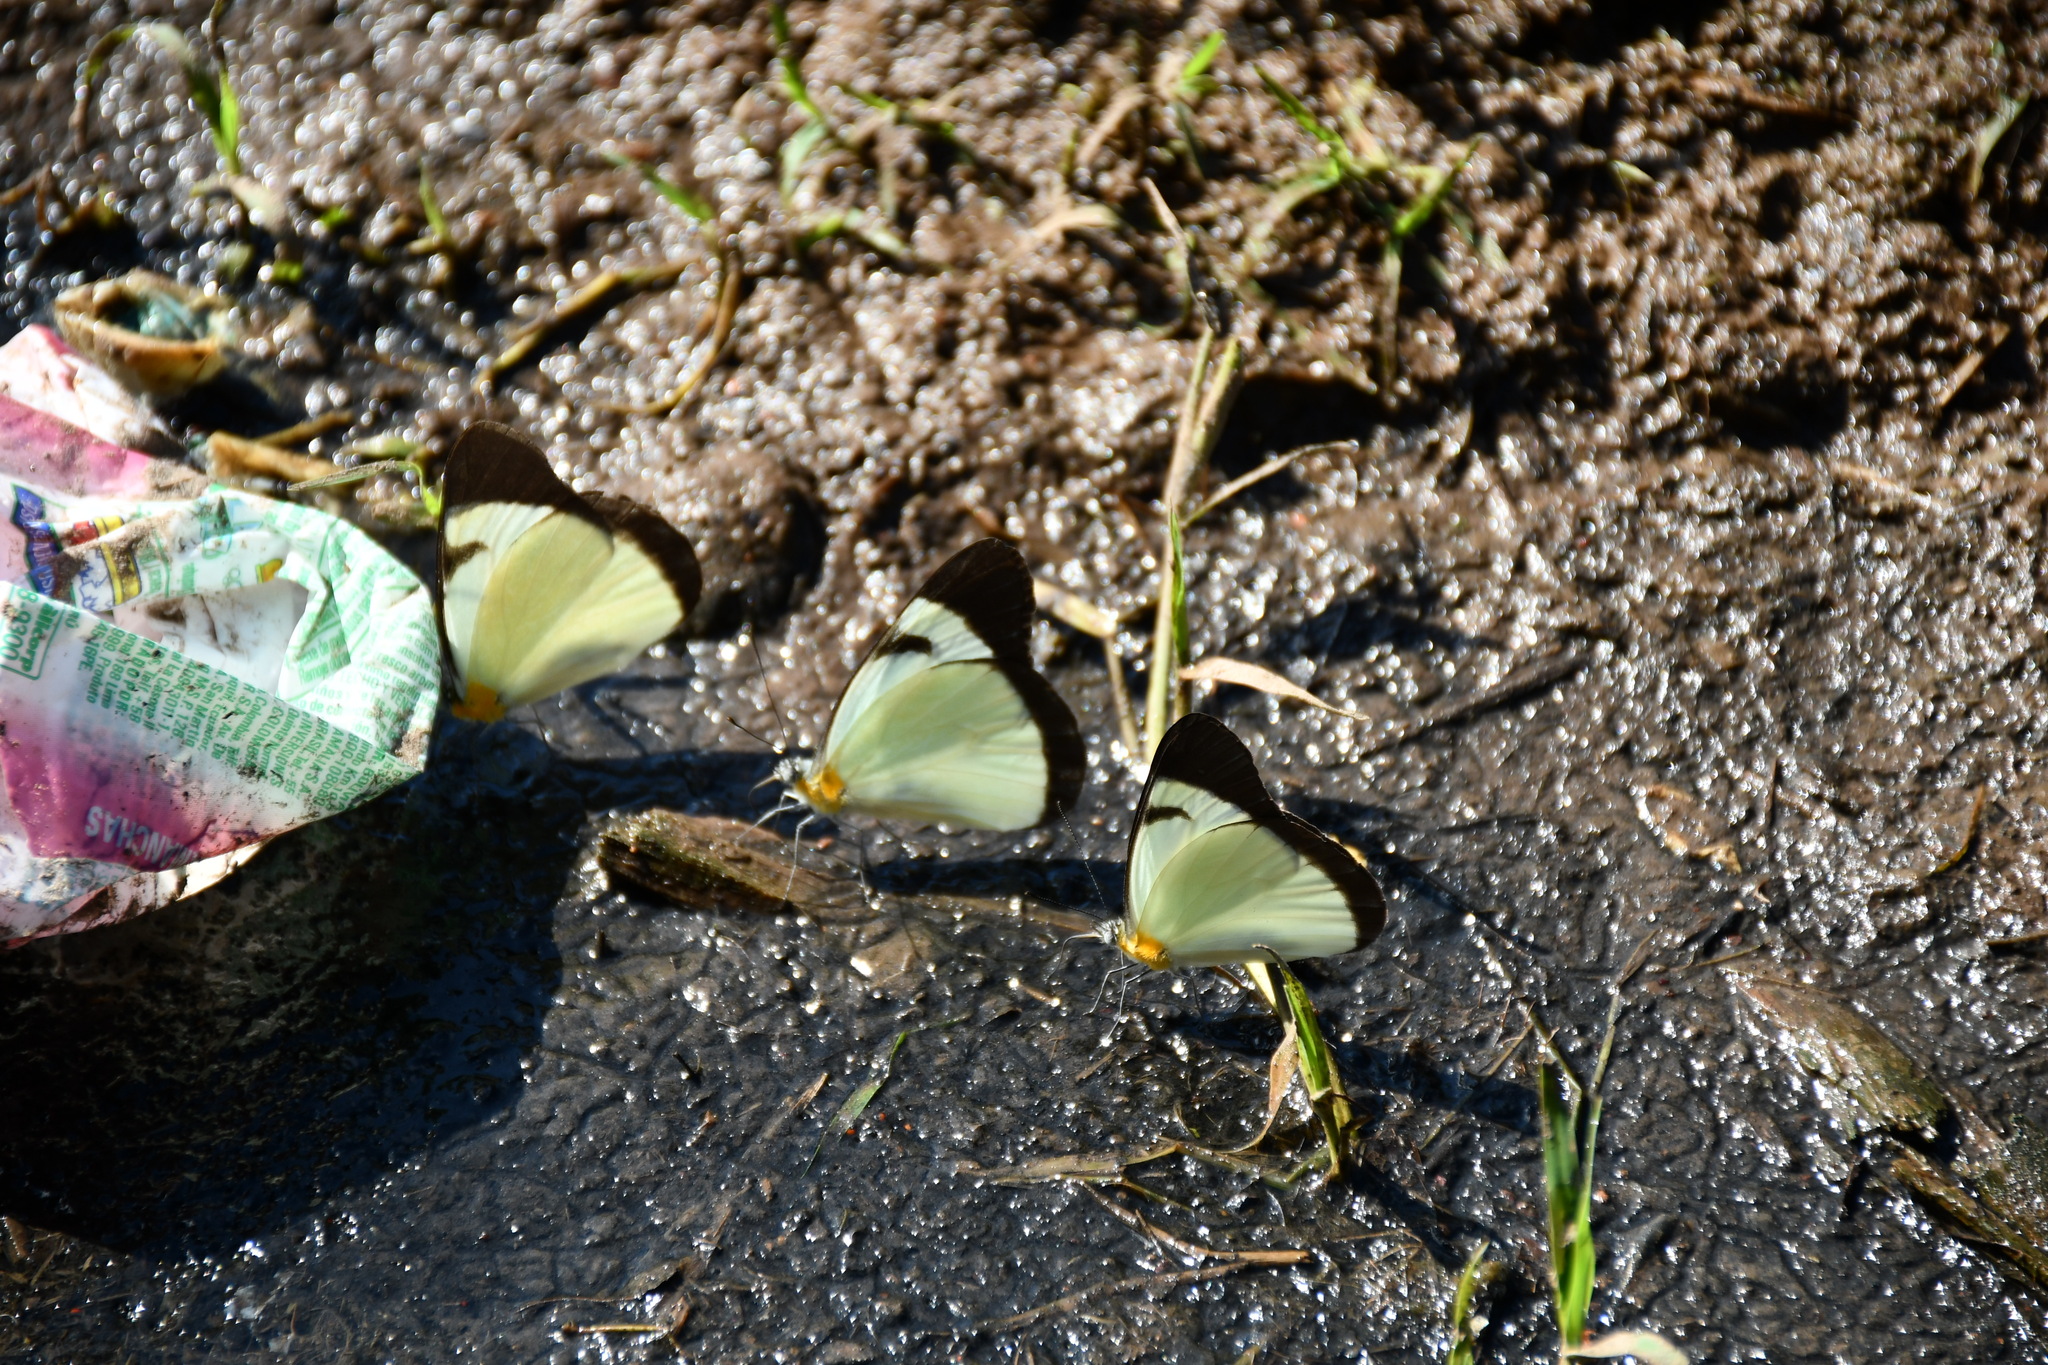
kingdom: Animalia
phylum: Arthropoda
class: Insecta
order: Lepidoptera
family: Pieridae
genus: Melete
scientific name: Melete lycimnia
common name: Common melwhite
